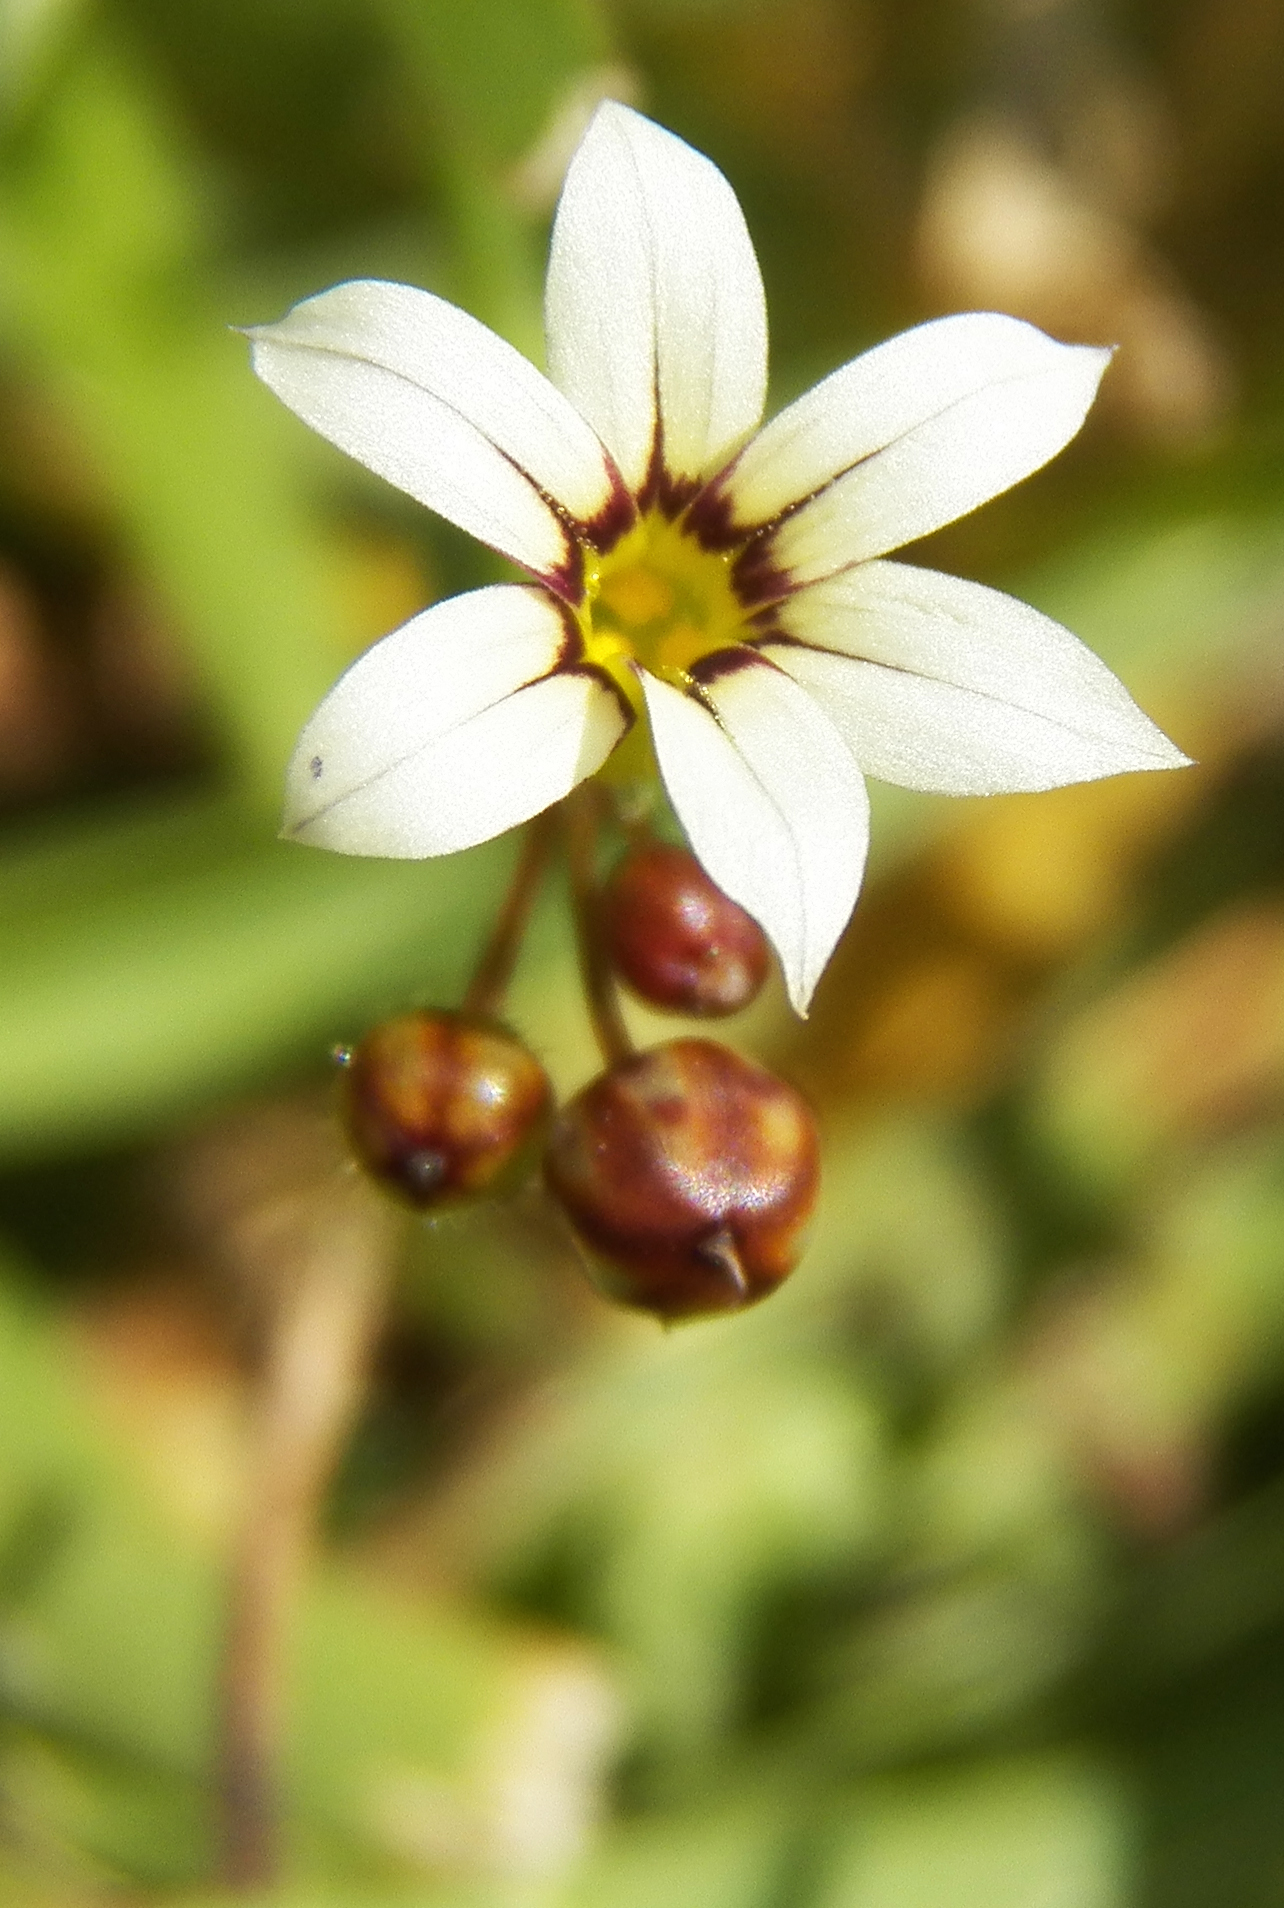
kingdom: Plantae
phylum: Tracheophyta
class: Liliopsida
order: Asparagales
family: Iridaceae
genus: Sisyrinchium
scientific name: Sisyrinchium micranthum
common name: Bermuda pigroot
